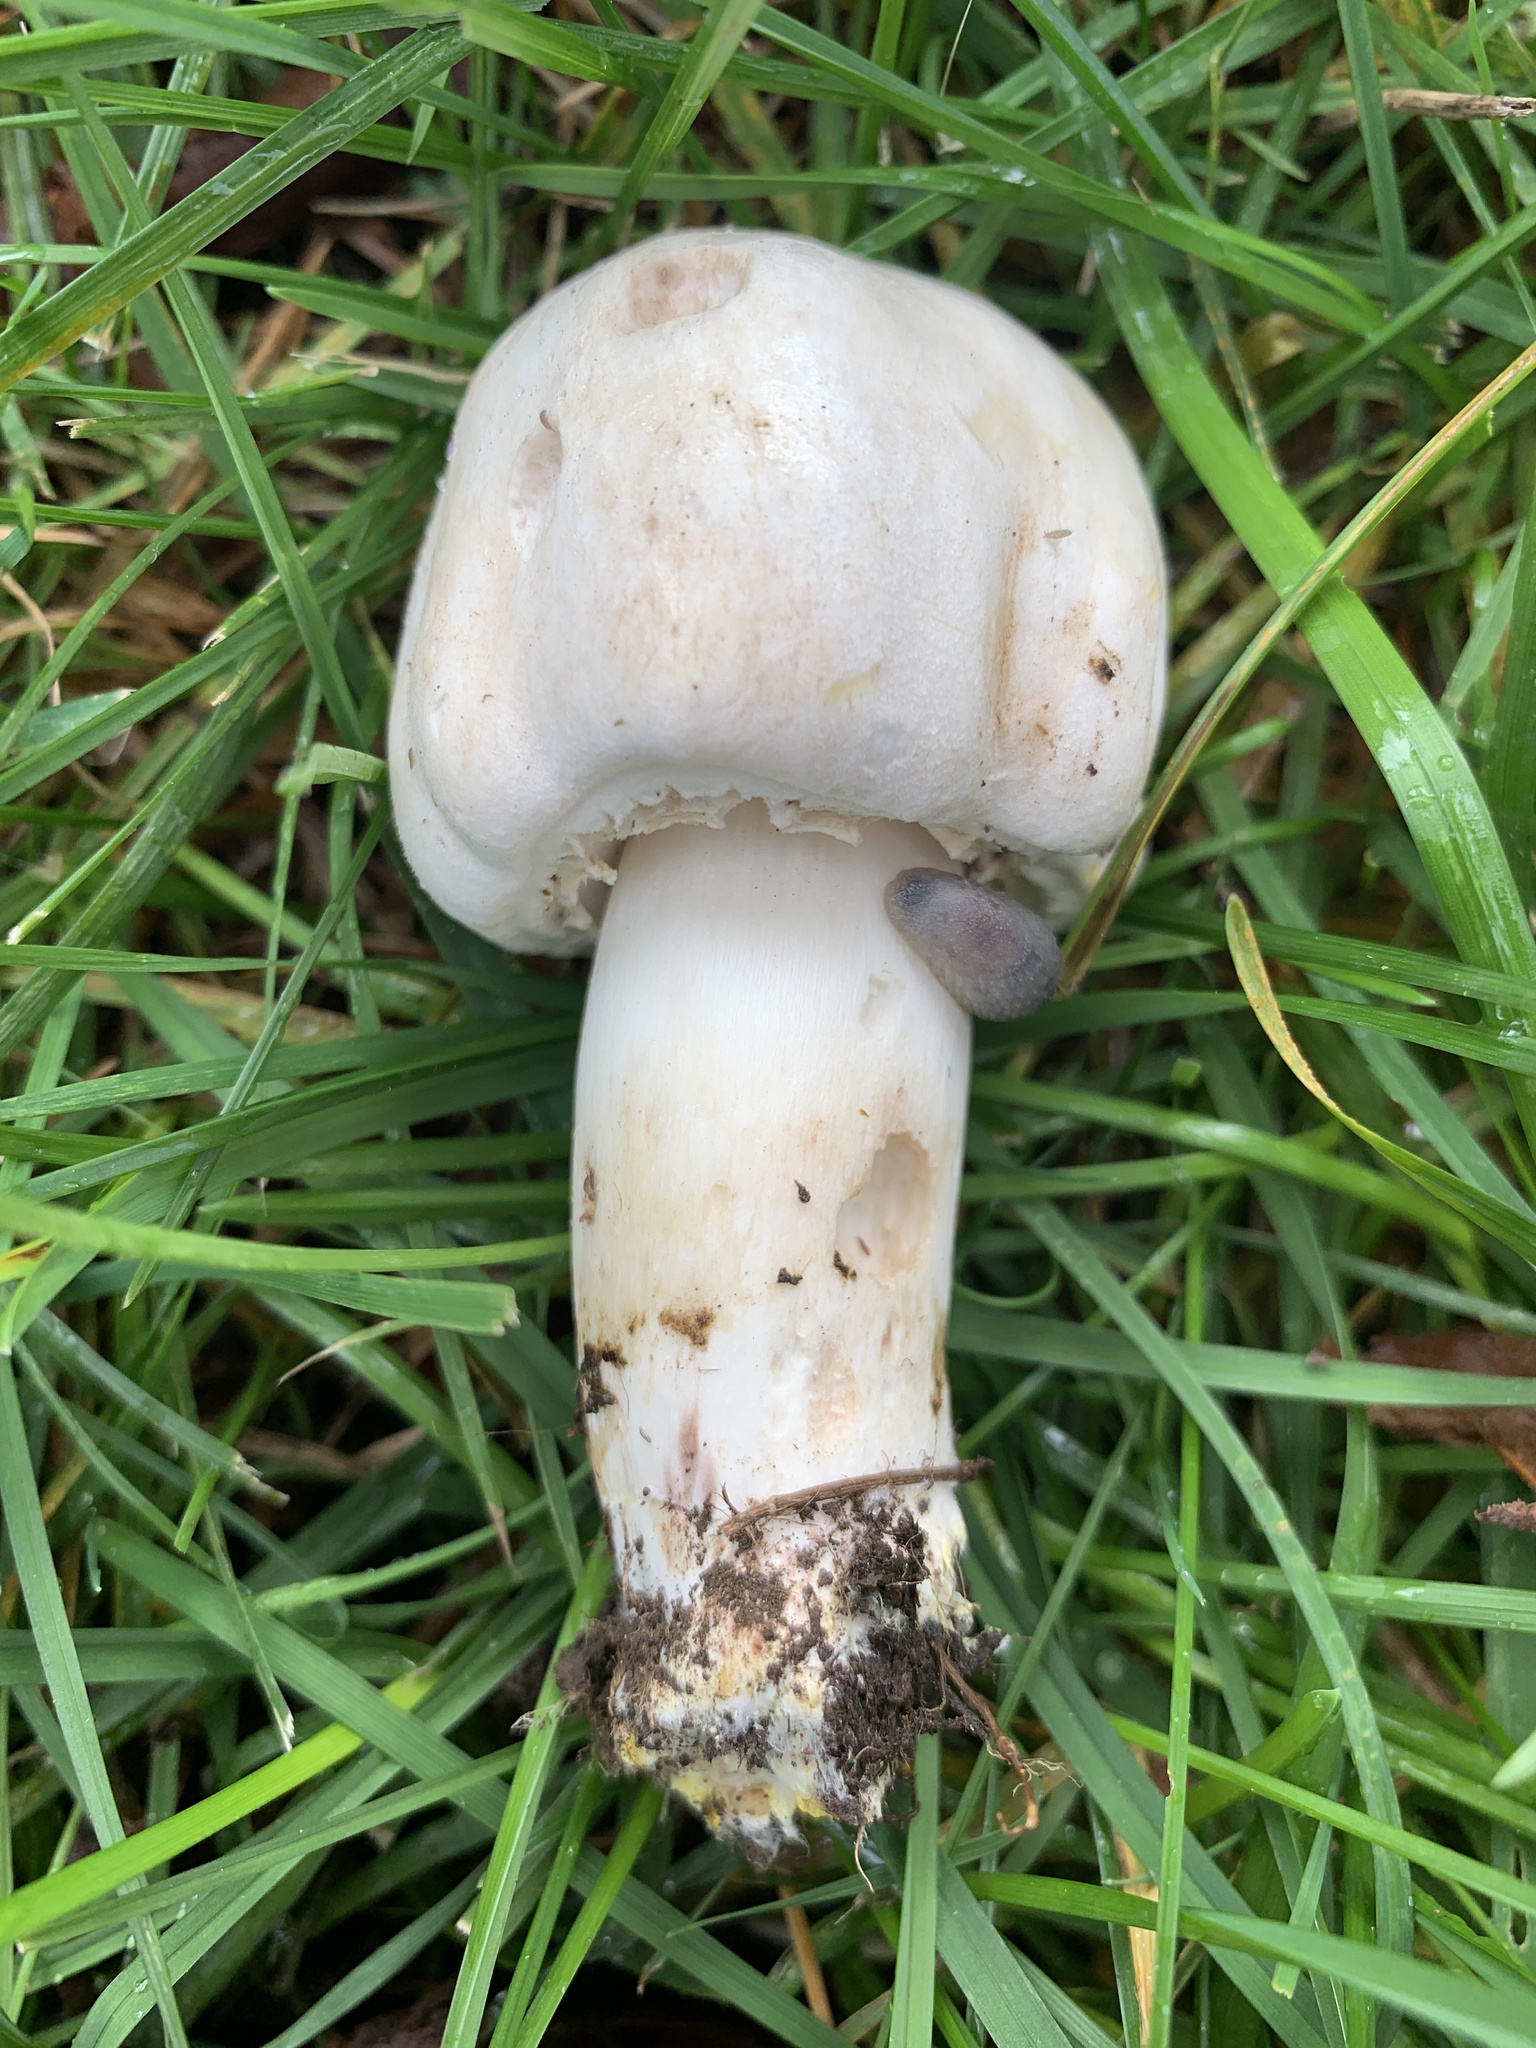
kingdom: Fungi
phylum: Basidiomycota
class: Agaricomycetes
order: Agaricales
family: Agaricaceae
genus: Agaricus
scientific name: Agaricus xanthodermus
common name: Yellow stainer
